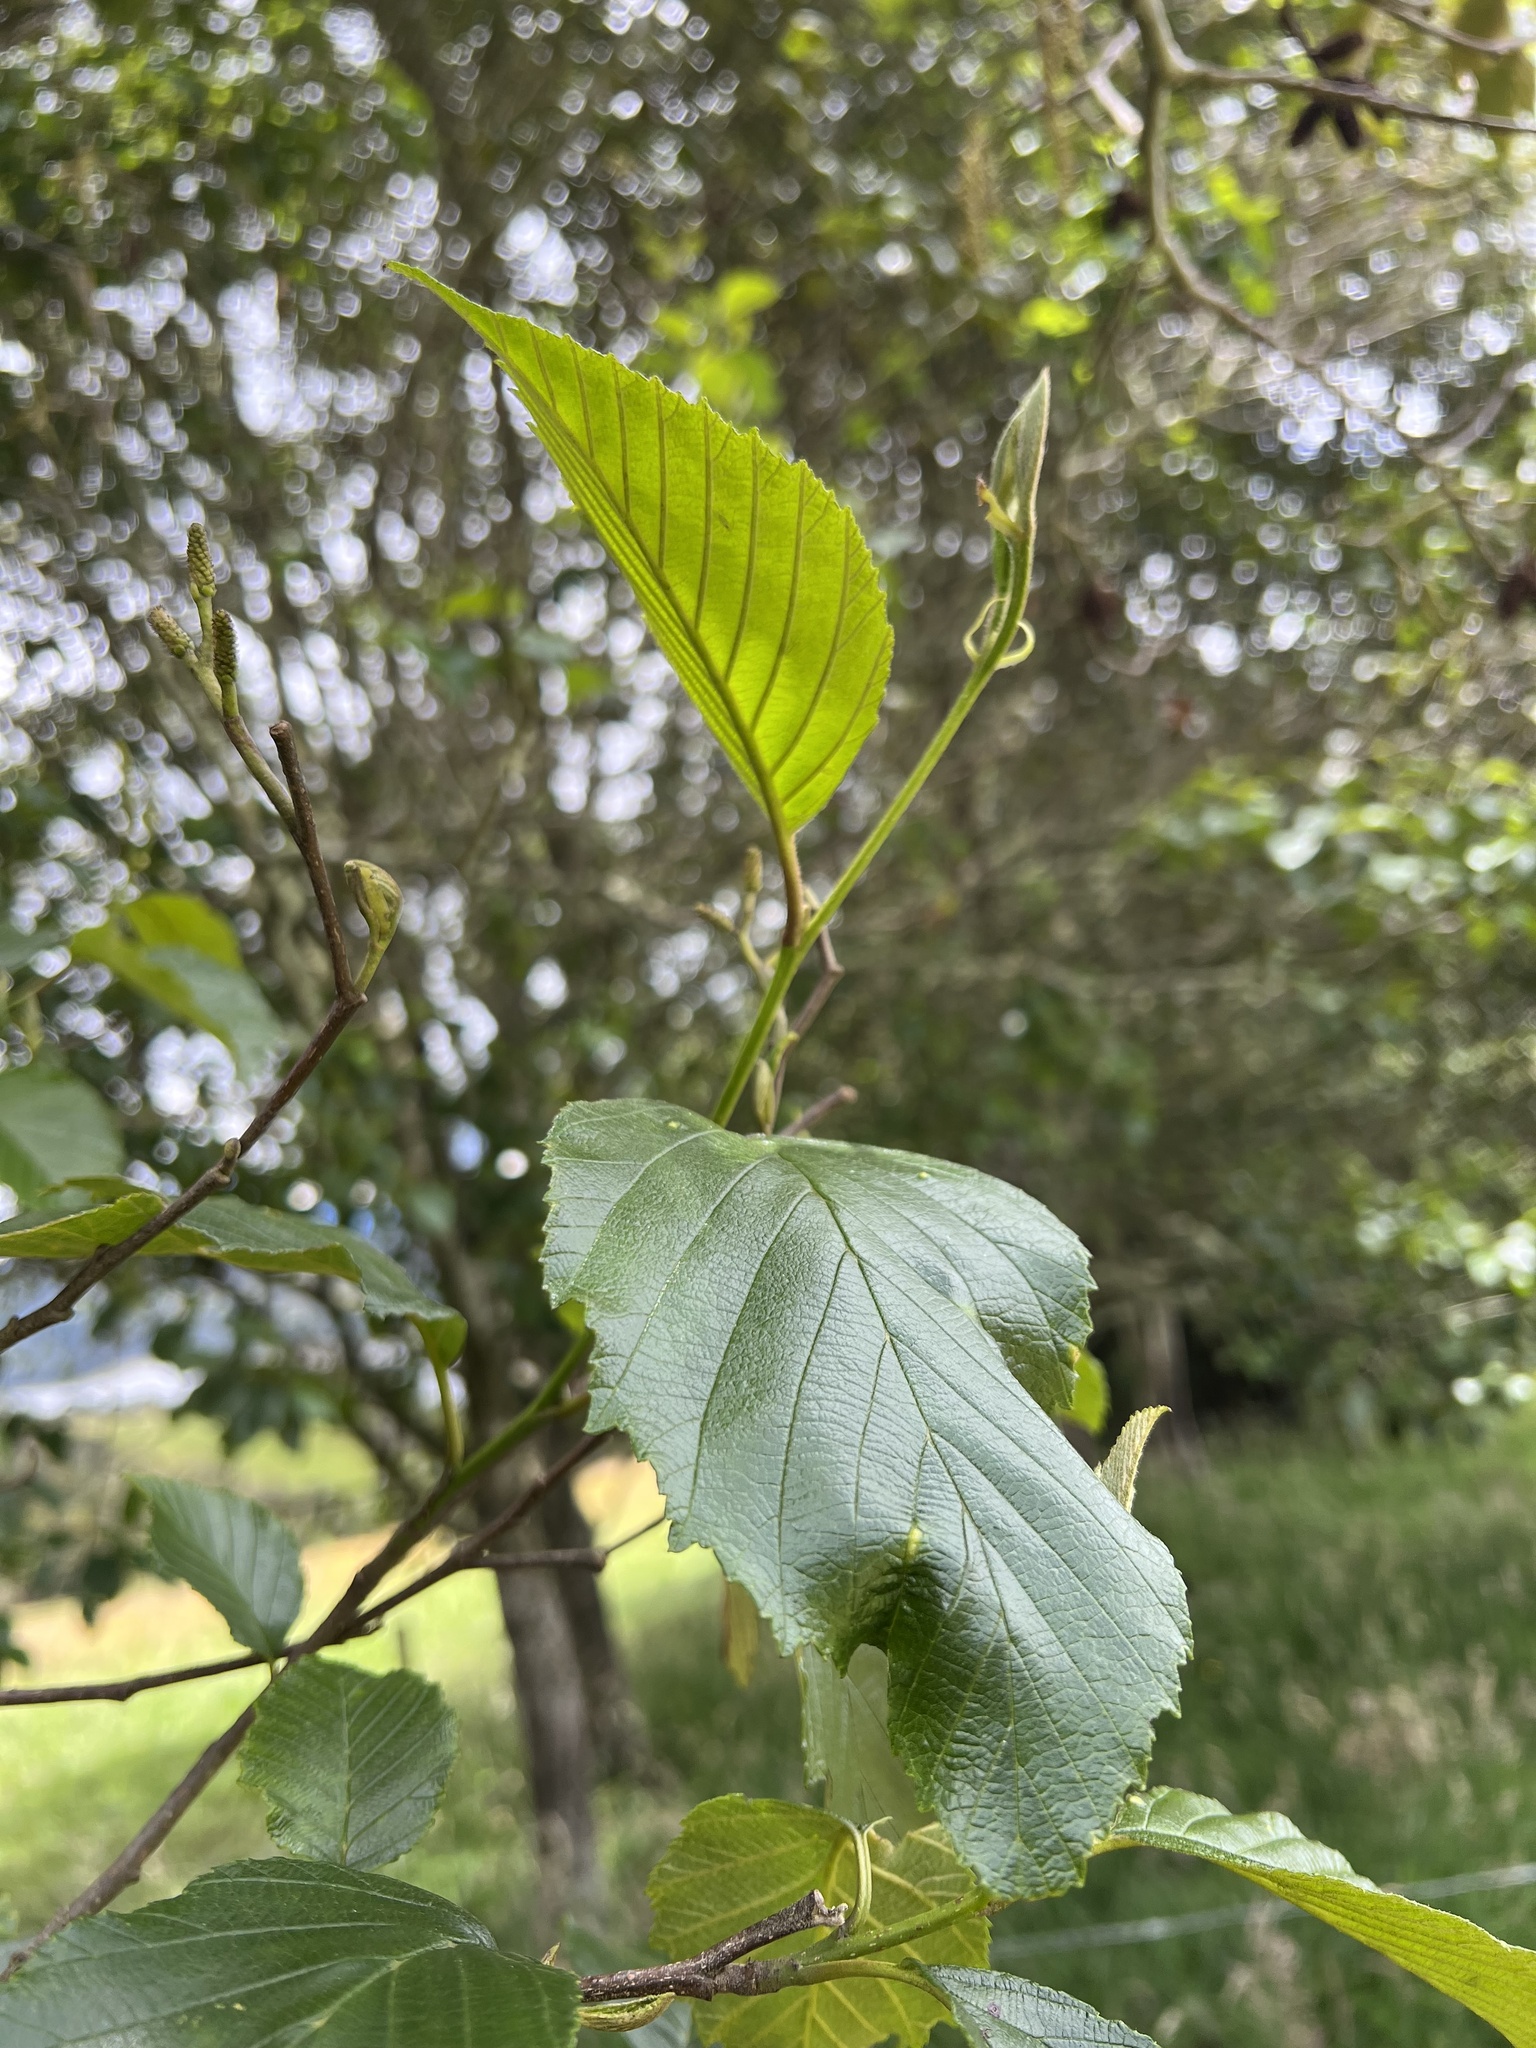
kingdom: Plantae
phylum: Tracheophyta
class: Magnoliopsida
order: Fagales
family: Betulaceae
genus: Alnus
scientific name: Alnus acuminata
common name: Alder
